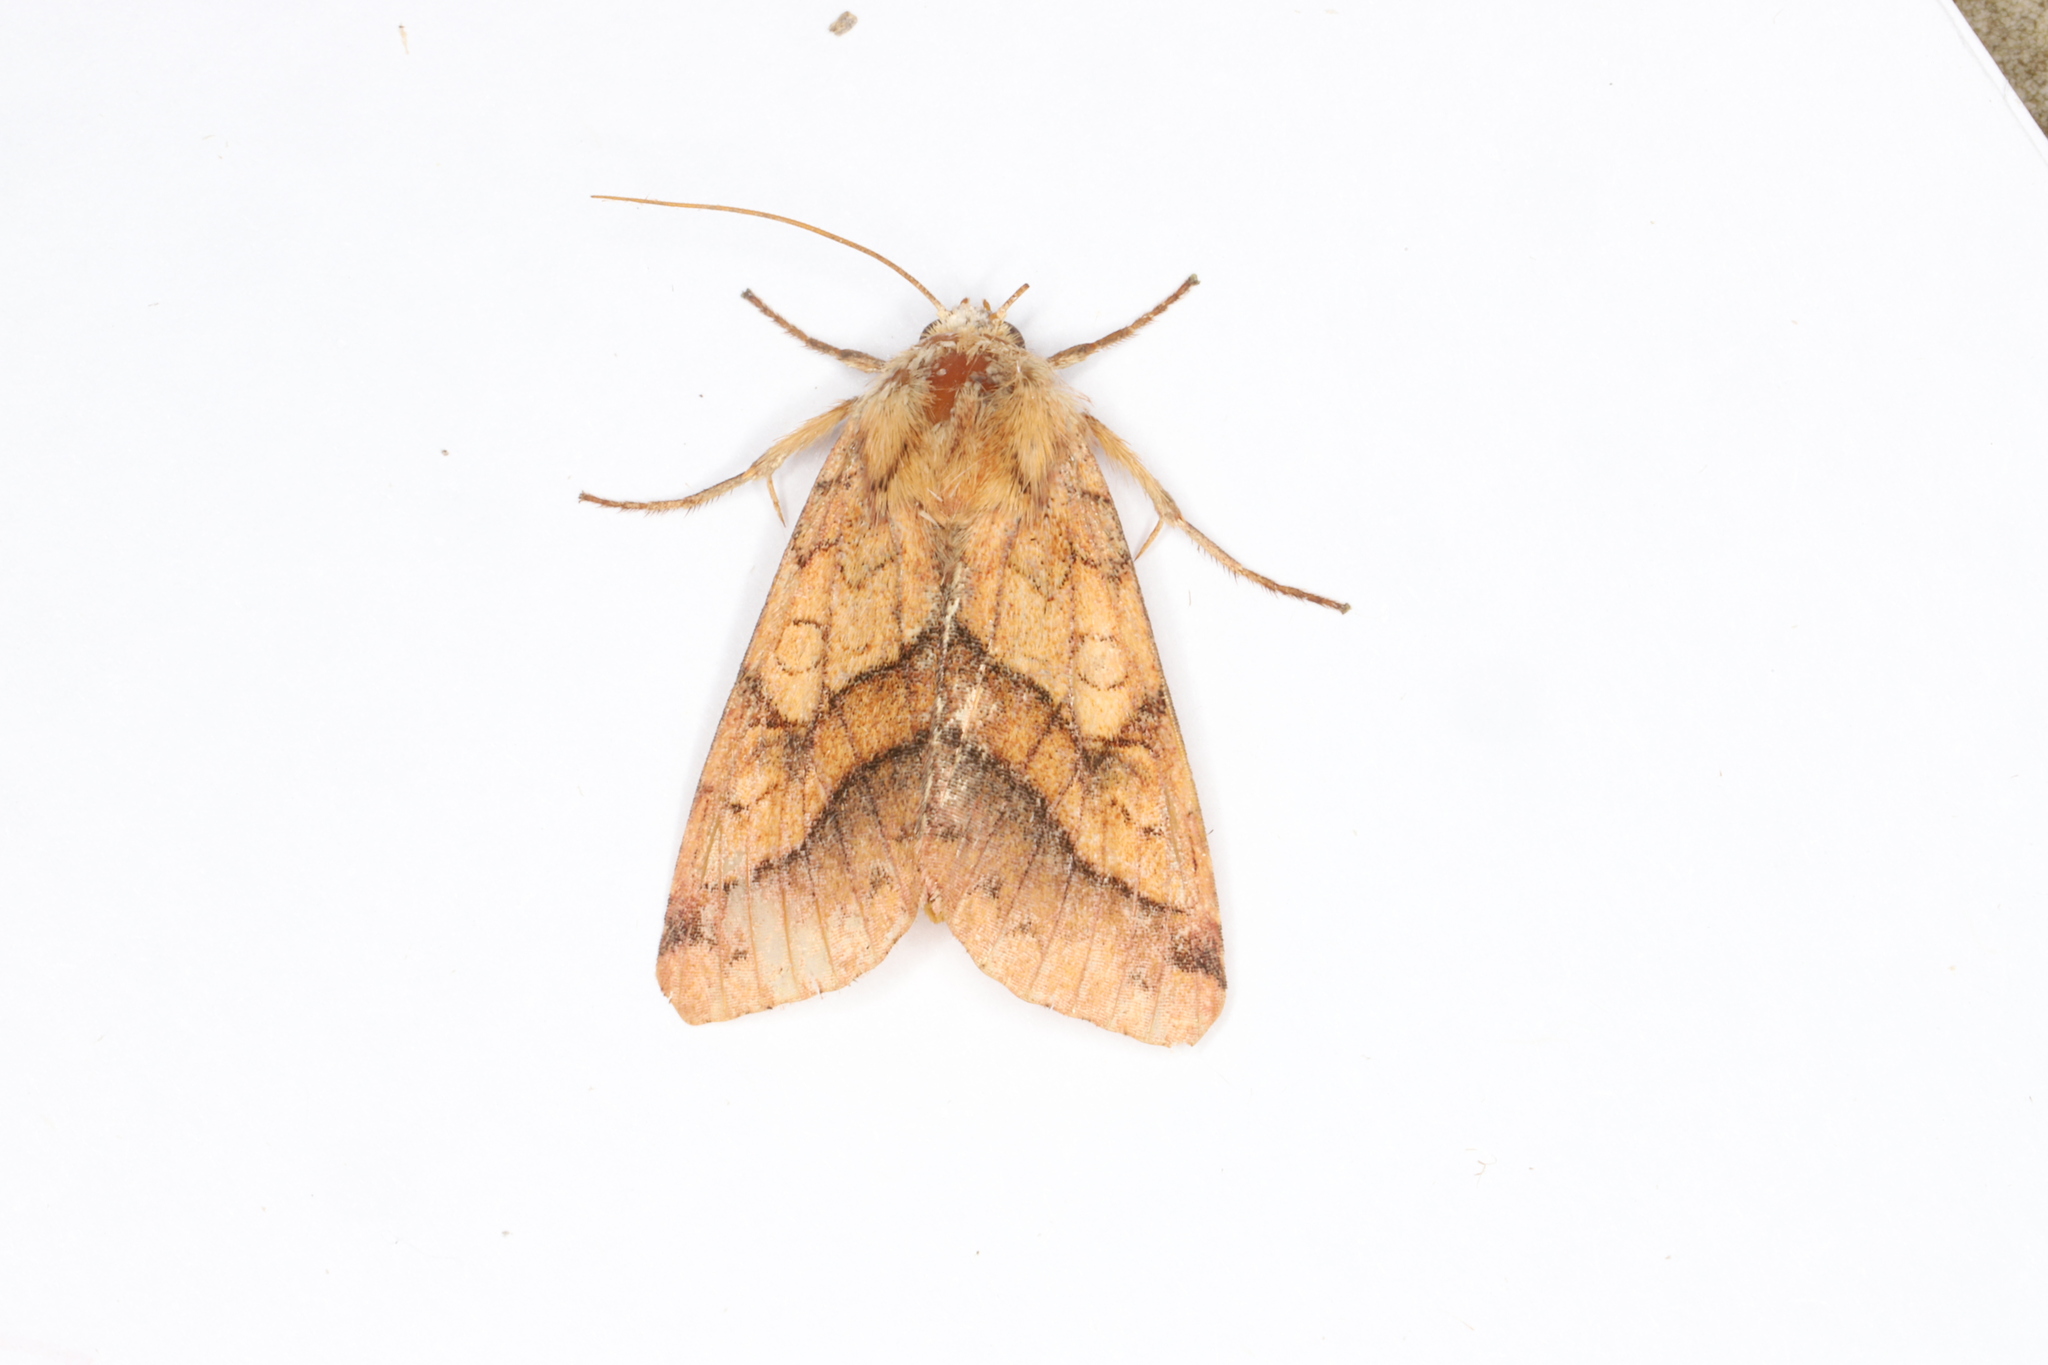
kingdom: Animalia
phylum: Arthropoda
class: Insecta
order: Lepidoptera
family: Noctuidae
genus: Pyrrhia
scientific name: Pyrrhia exprimens
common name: Purple-lined sallow
